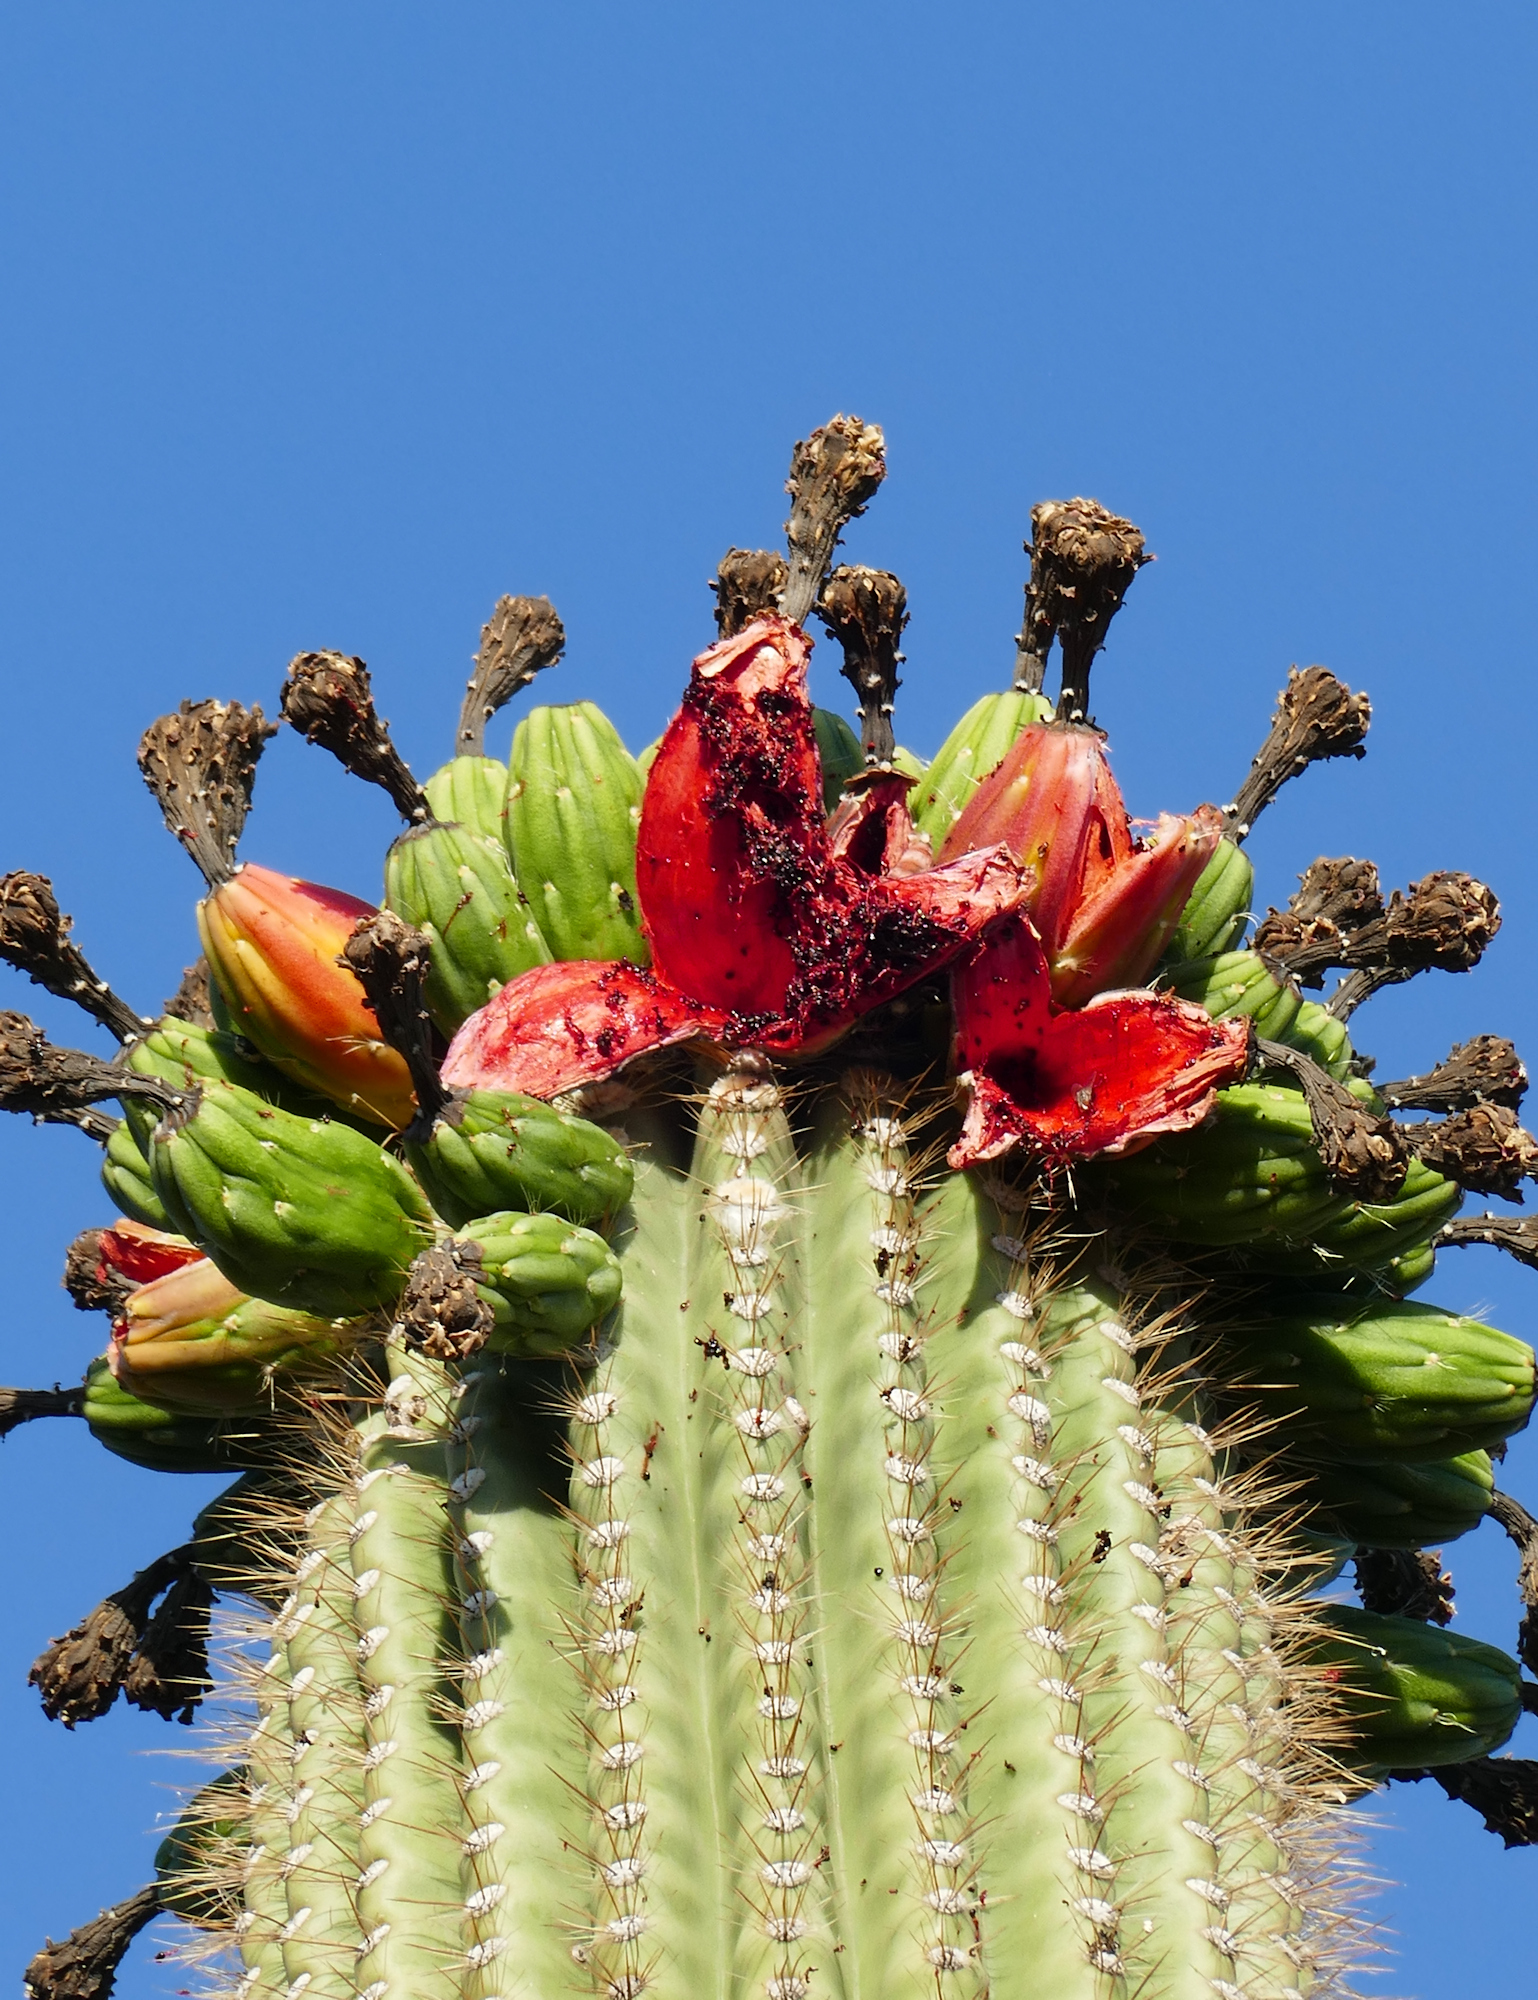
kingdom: Plantae
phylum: Tracheophyta
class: Magnoliopsida
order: Caryophyllales
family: Cactaceae
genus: Carnegiea
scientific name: Carnegiea gigantea
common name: Saguaro
